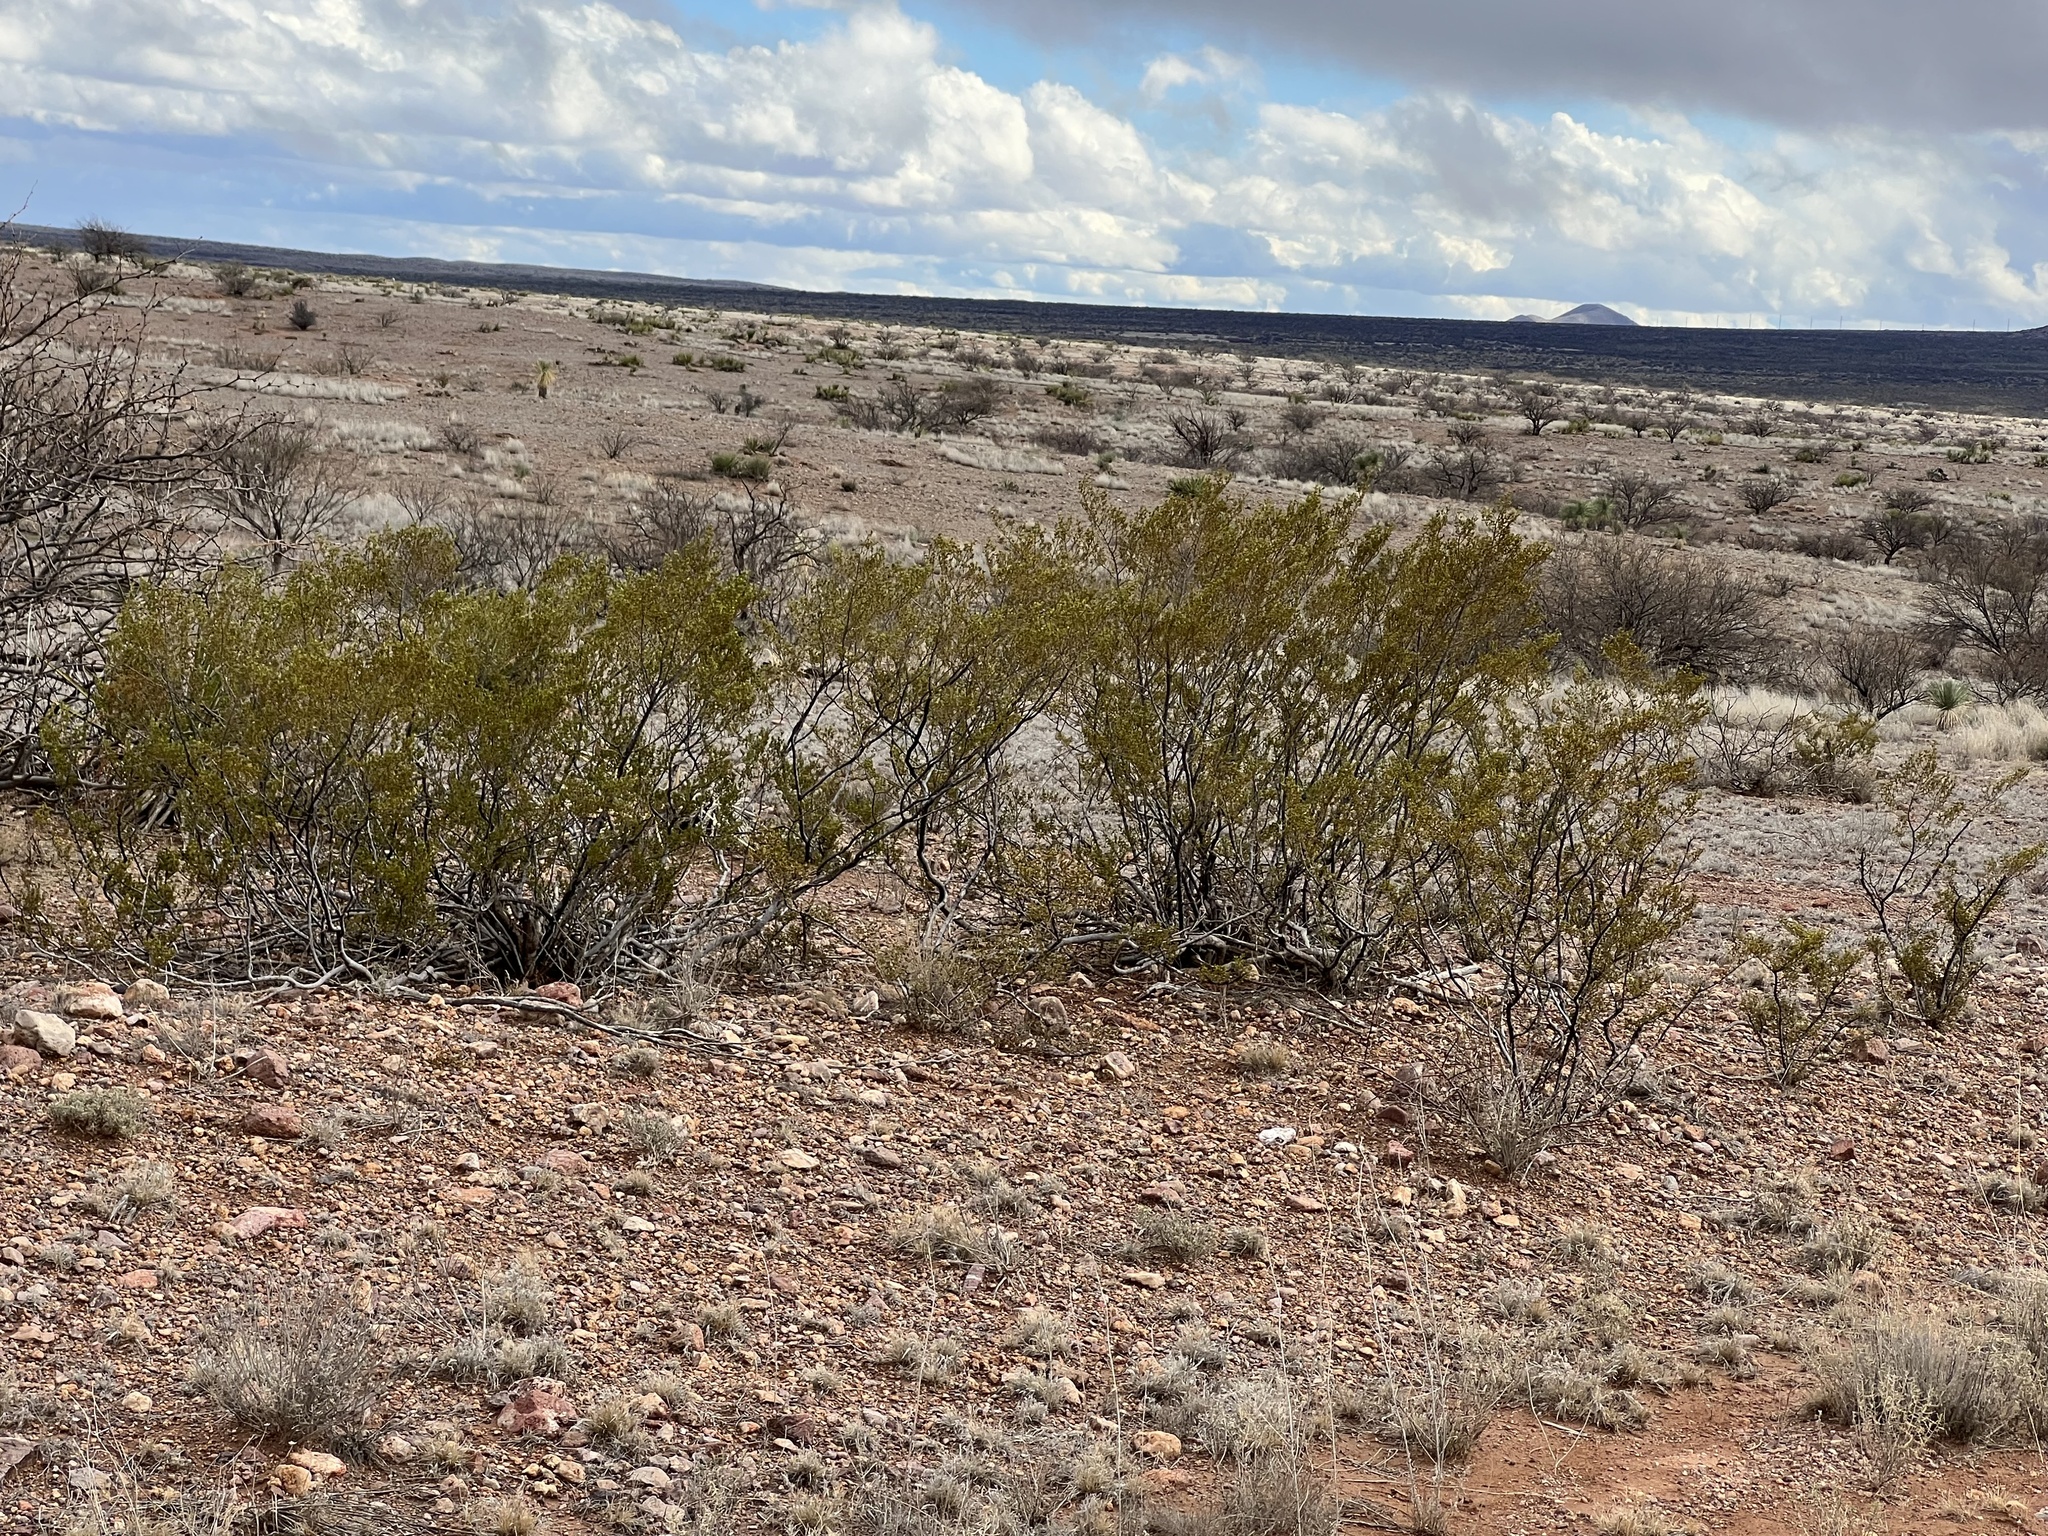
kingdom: Plantae
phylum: Tracheophyta
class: Magnoliopsida
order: Zygophyllales
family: Zygophyllaceae
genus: Larrea
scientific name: Larrea tridentata
